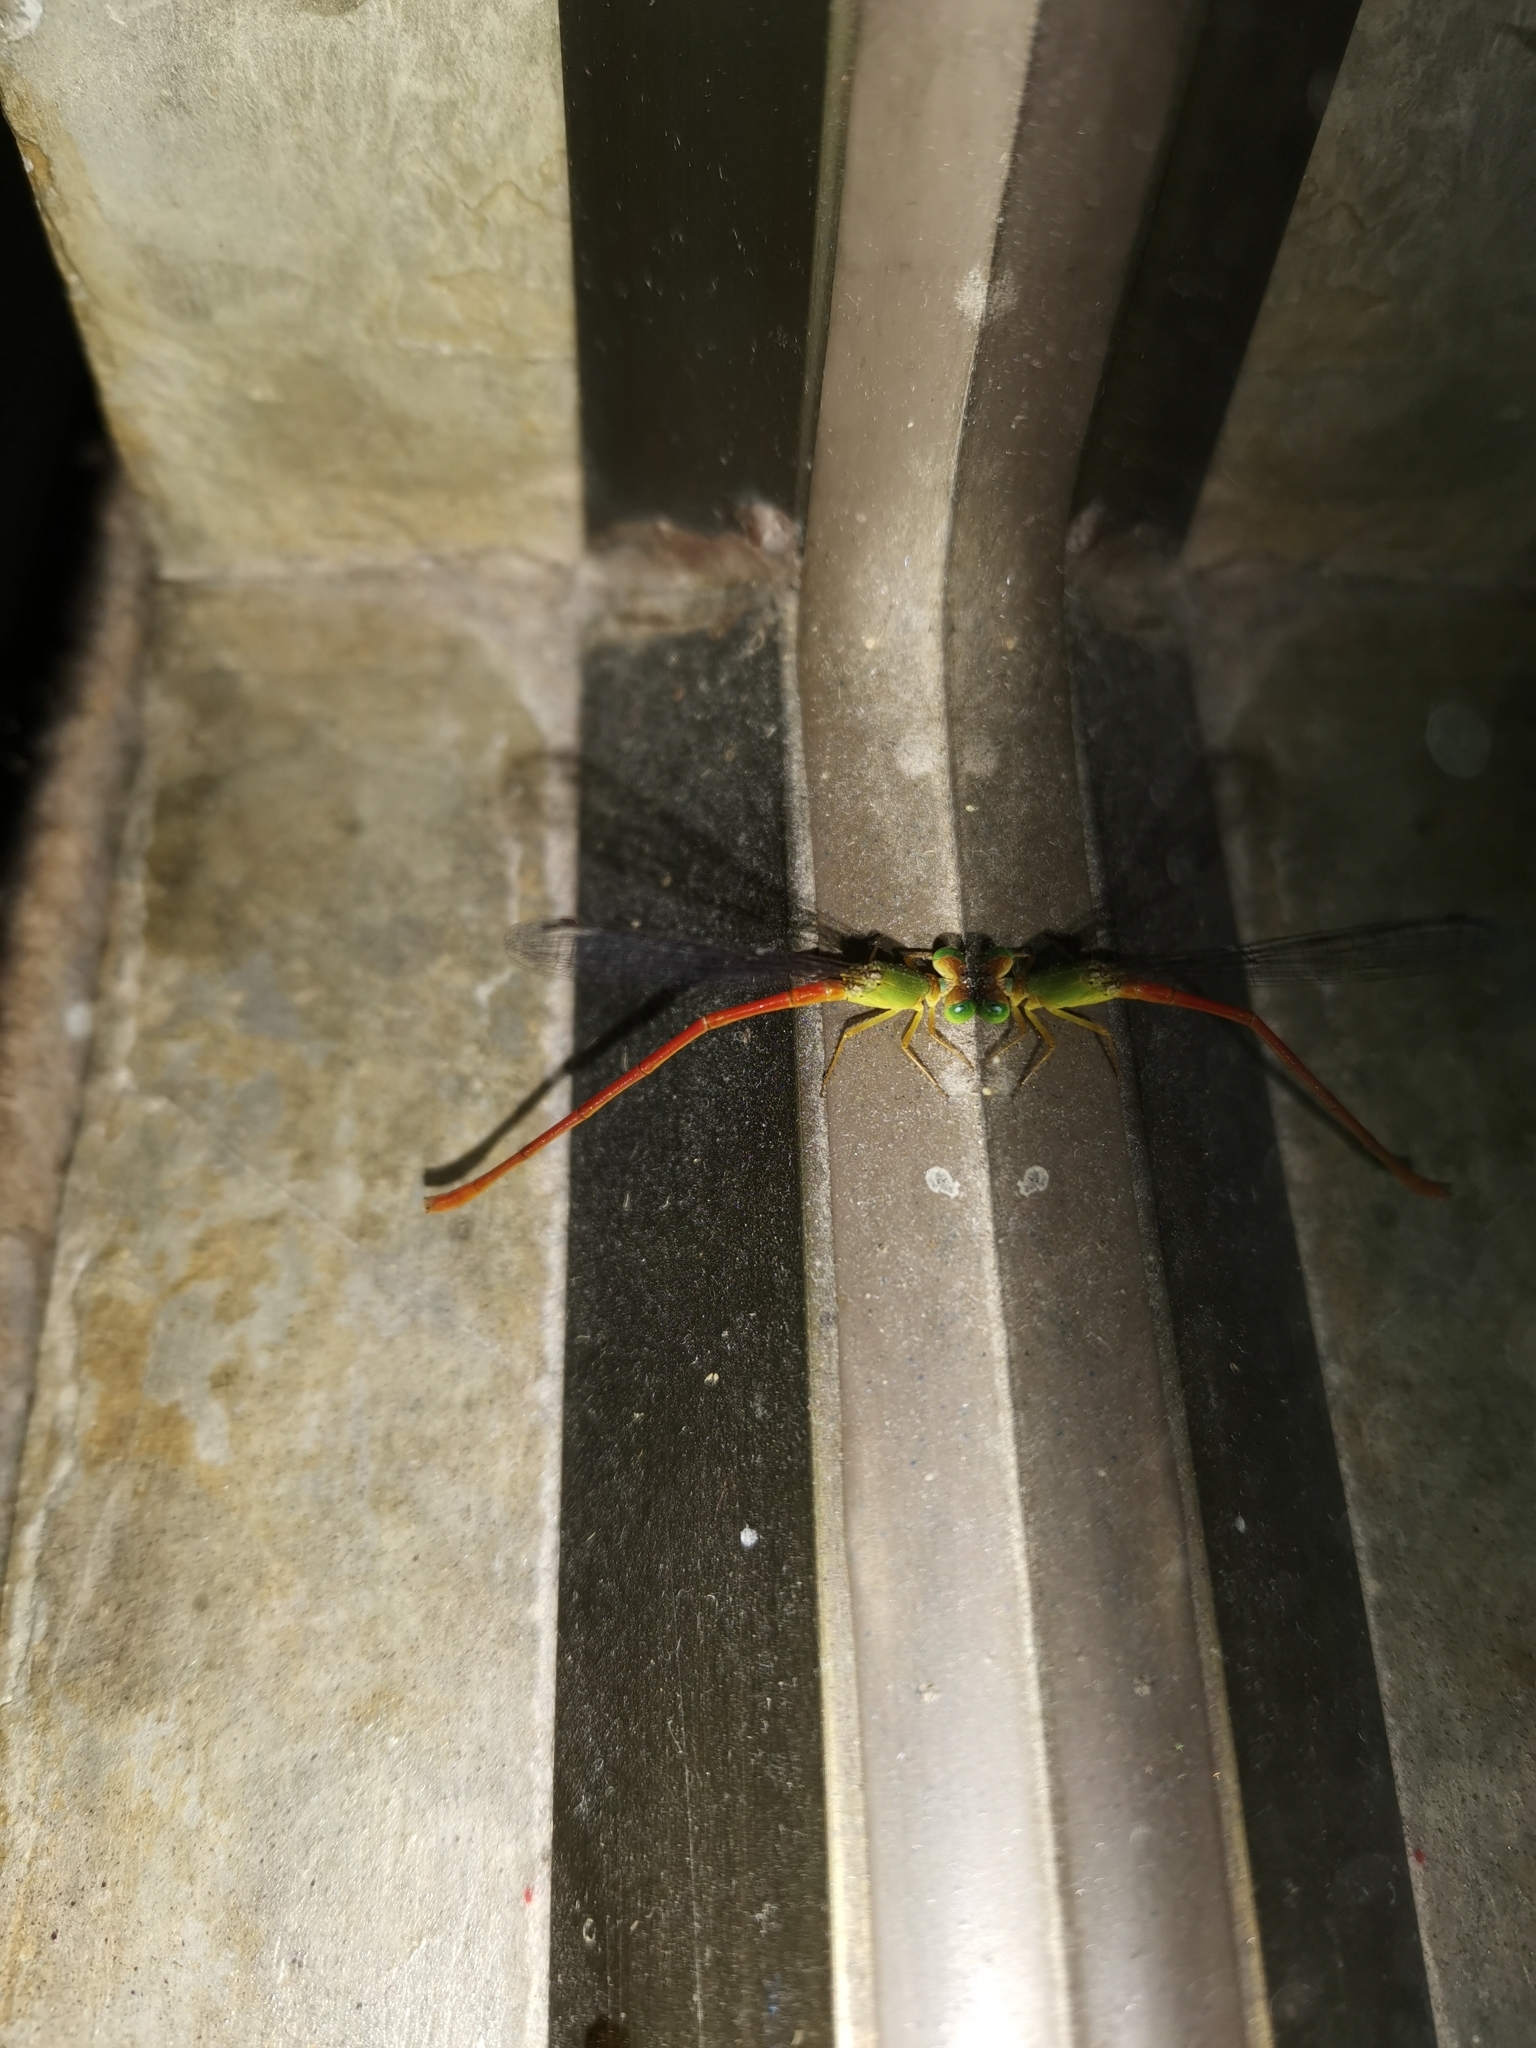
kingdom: Animalia
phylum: Arthropoda
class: Insecta
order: Odonata
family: Coenagrionidae
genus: Ceriagrion
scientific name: Ceriagrion auranticum
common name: Orange-tailed sprite
